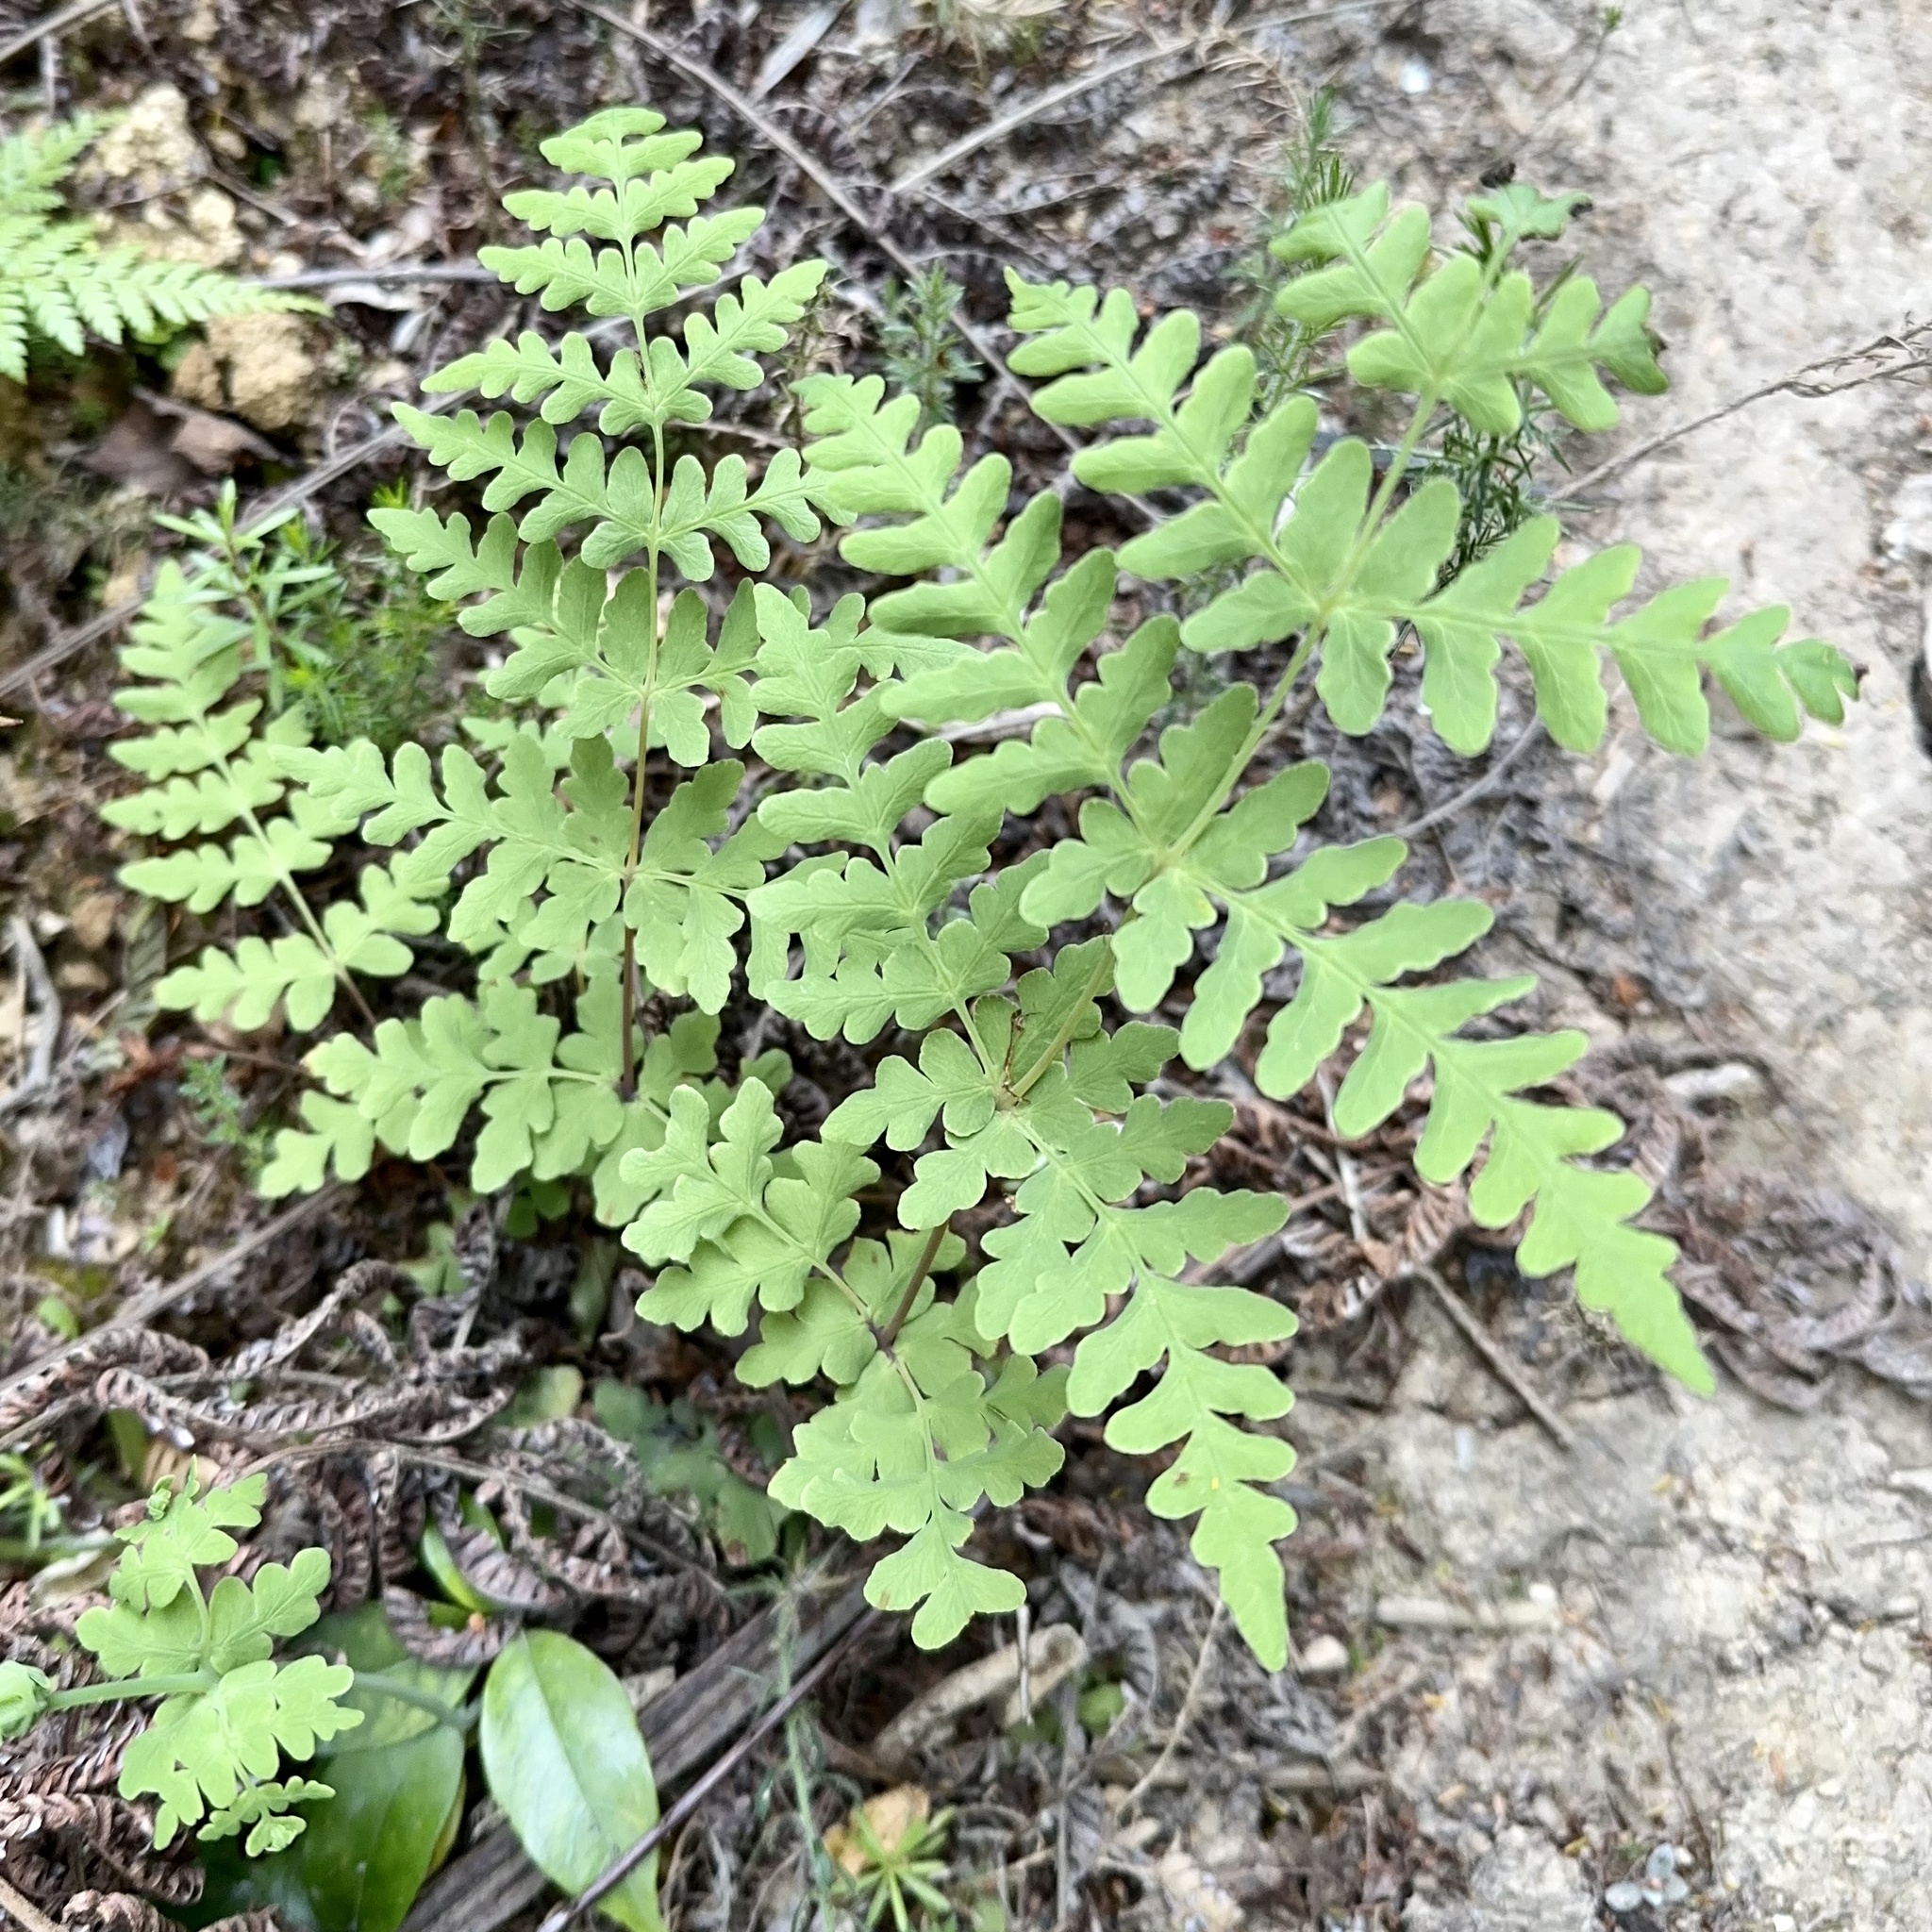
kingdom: Plantae
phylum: Tracheophyta
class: Polypodiopsida
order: Polypodiales
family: Dennstaedtiaceae
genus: Histiopteris
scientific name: Histiopteris incisa
